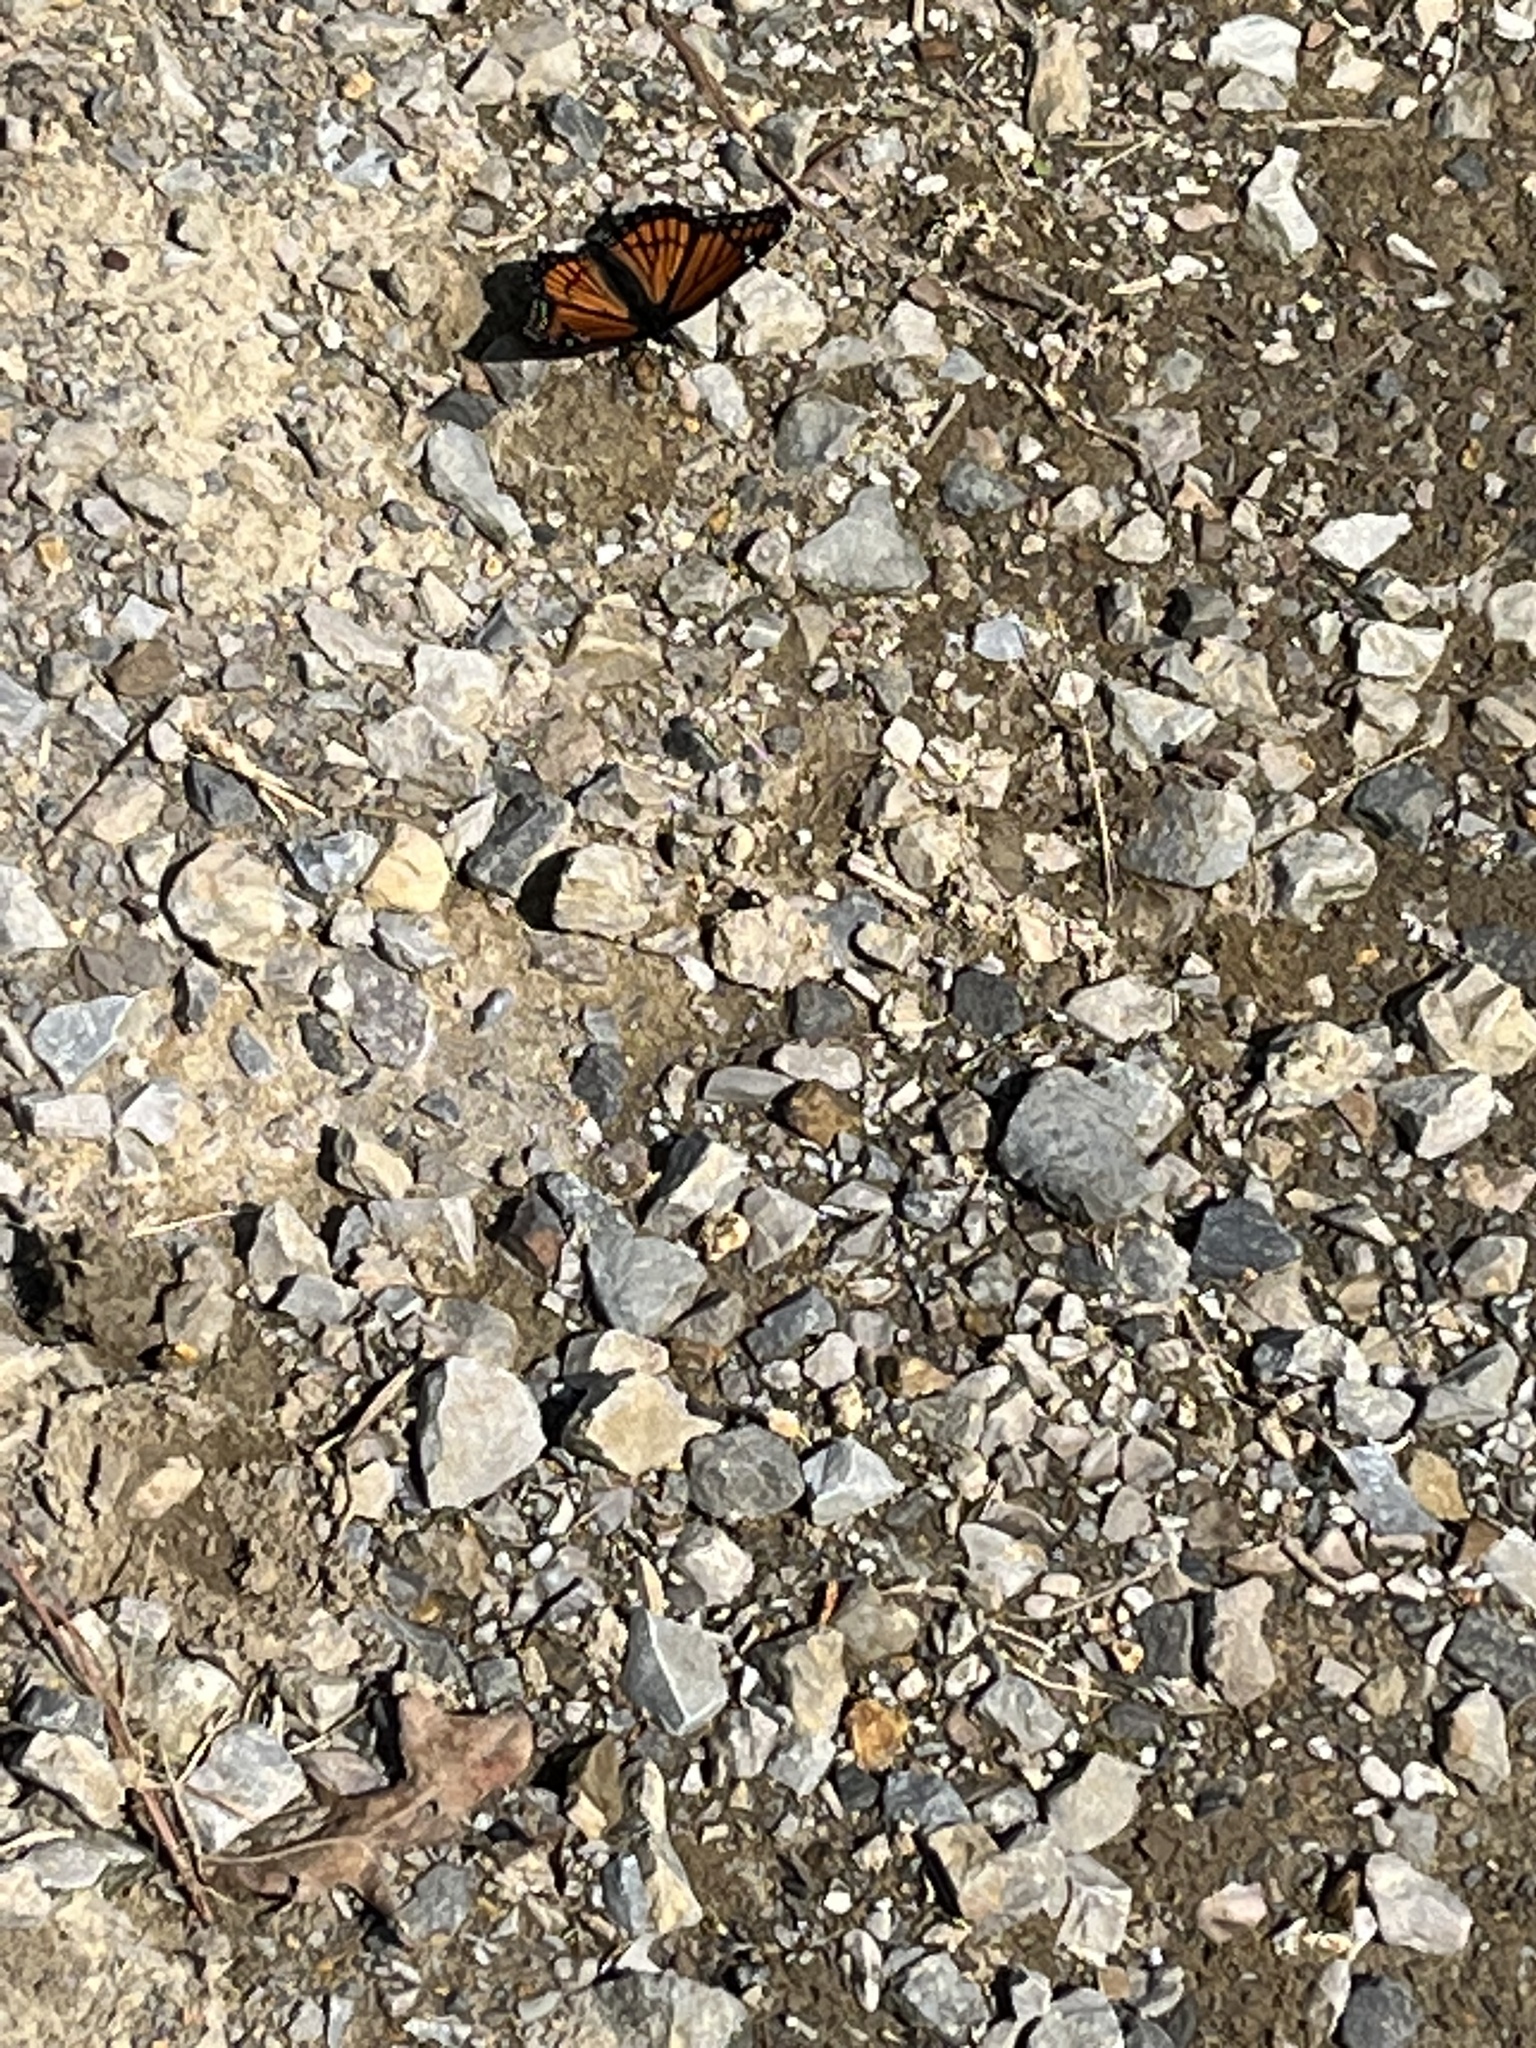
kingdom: Animalia
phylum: Arthropoda
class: Insecta
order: Lepidoptera
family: Nymphalidae
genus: Limenitis
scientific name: Limenitis archippus
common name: Viceroy
